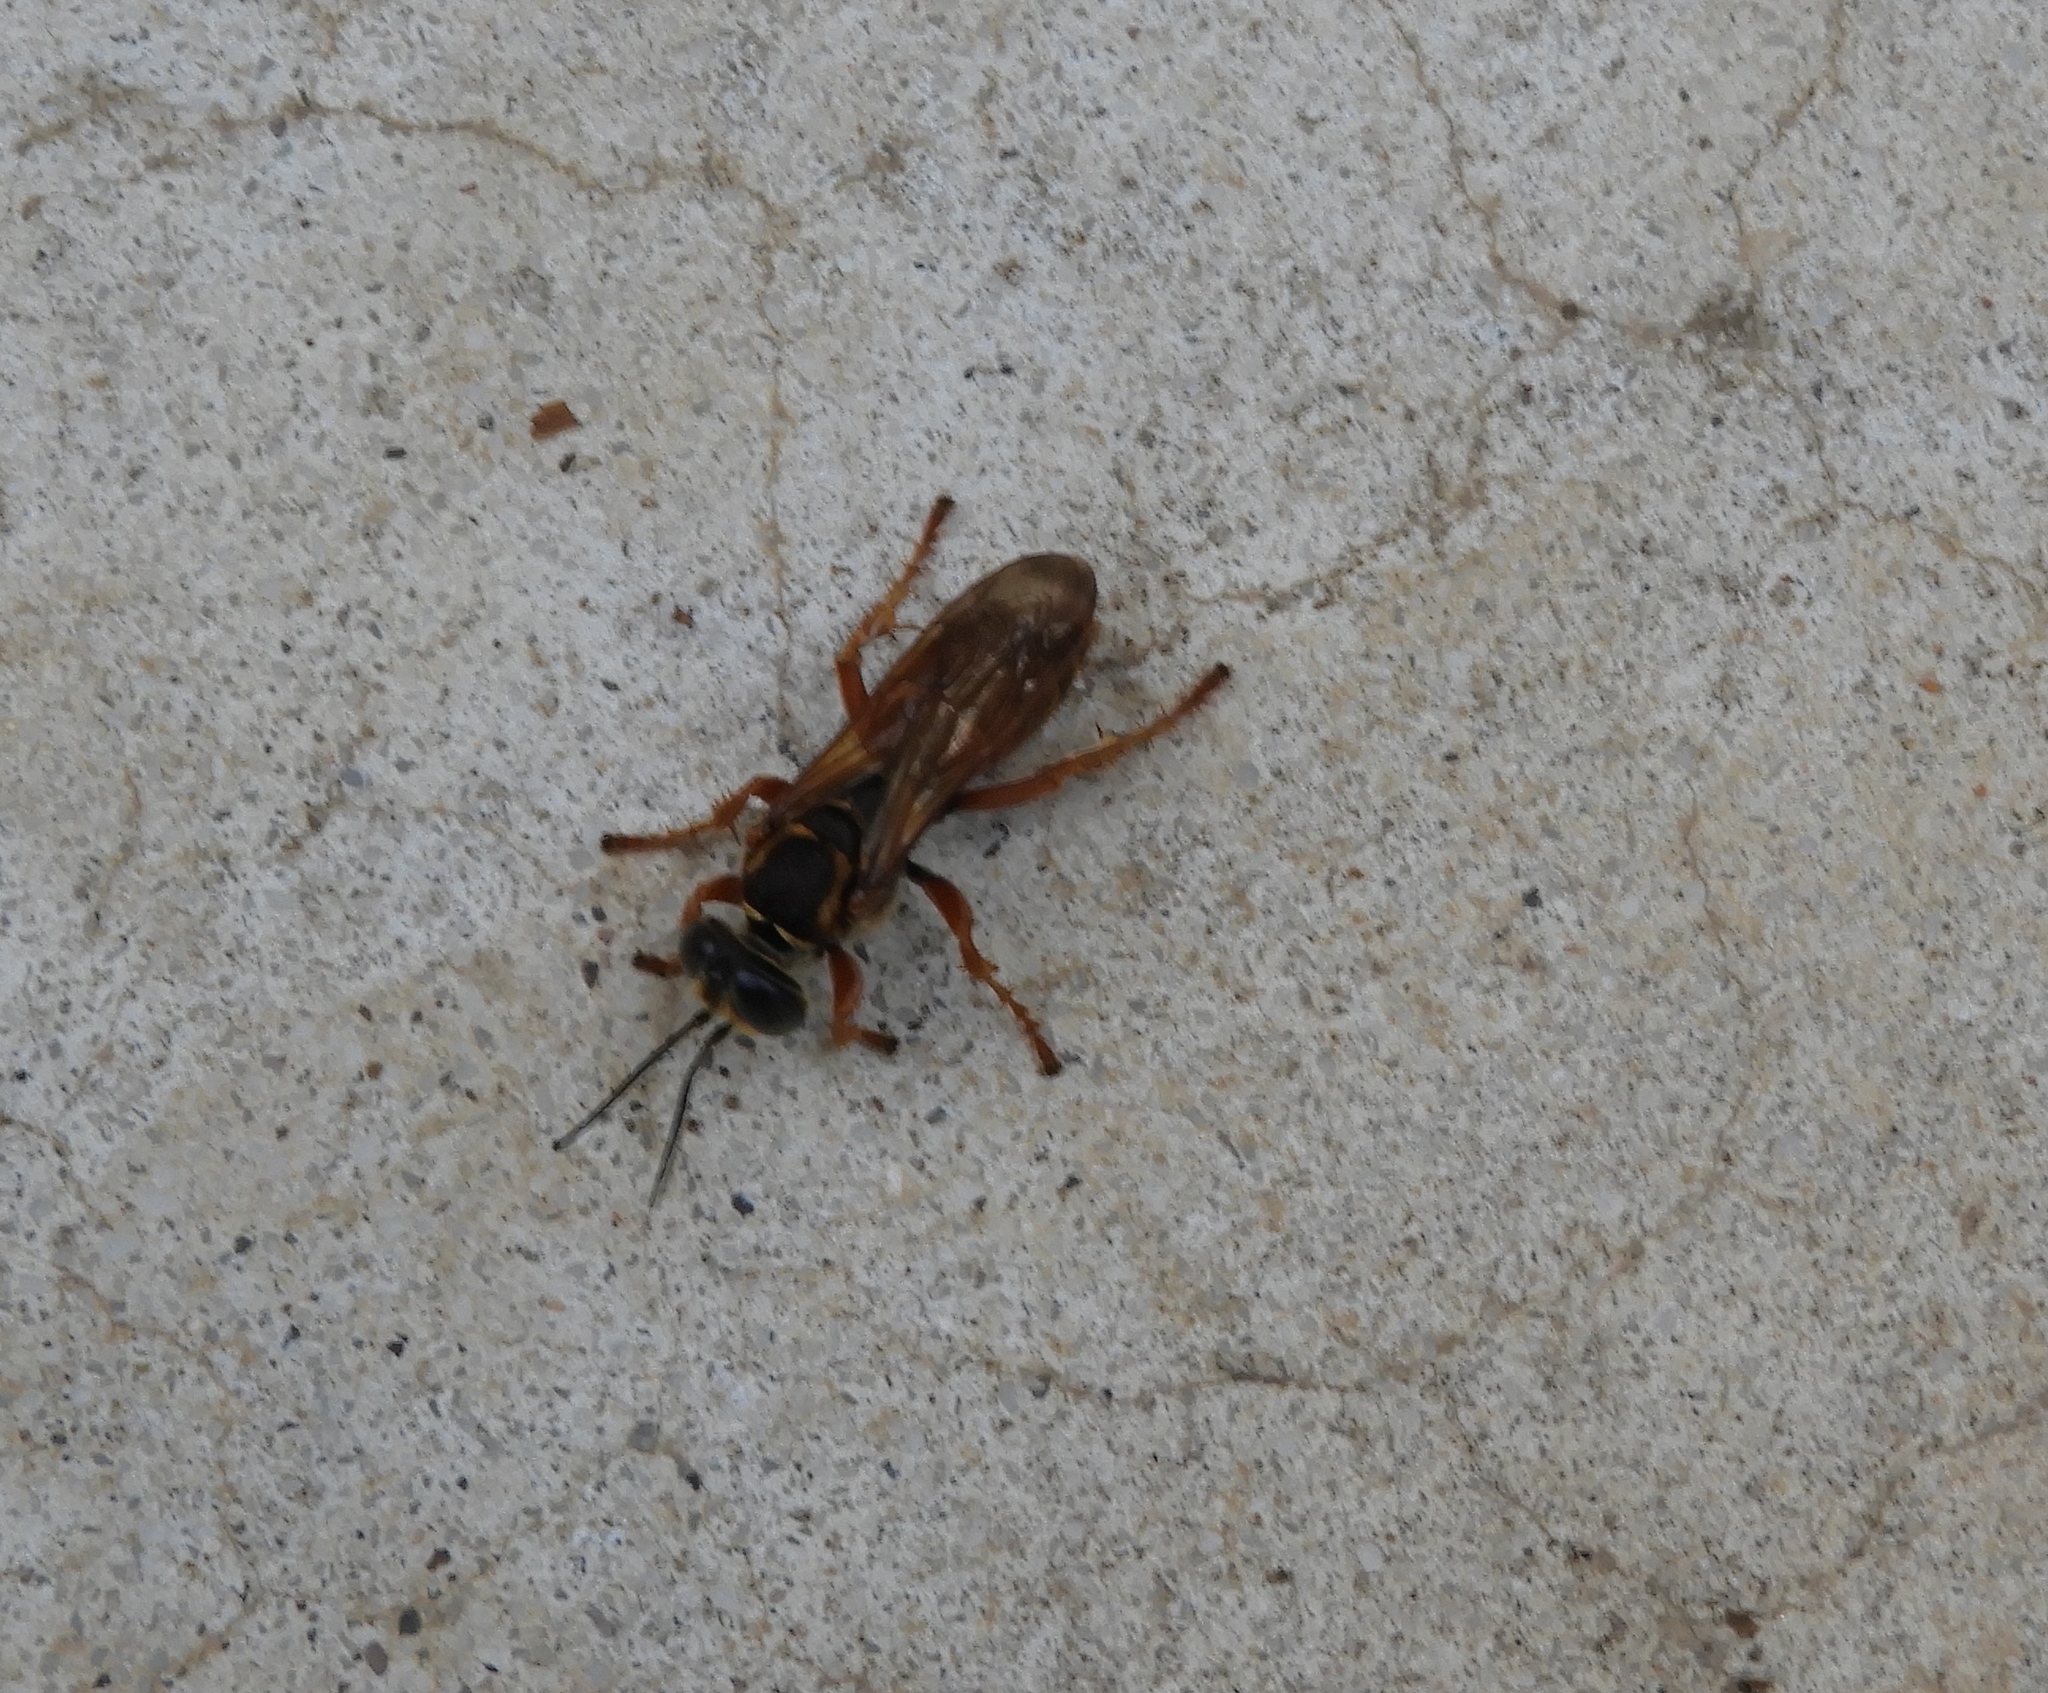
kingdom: Animalia
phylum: Arthropoda
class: Insecta
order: Hymenoptera
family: Crabronidae
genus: Tachytes
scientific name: Tachytes
